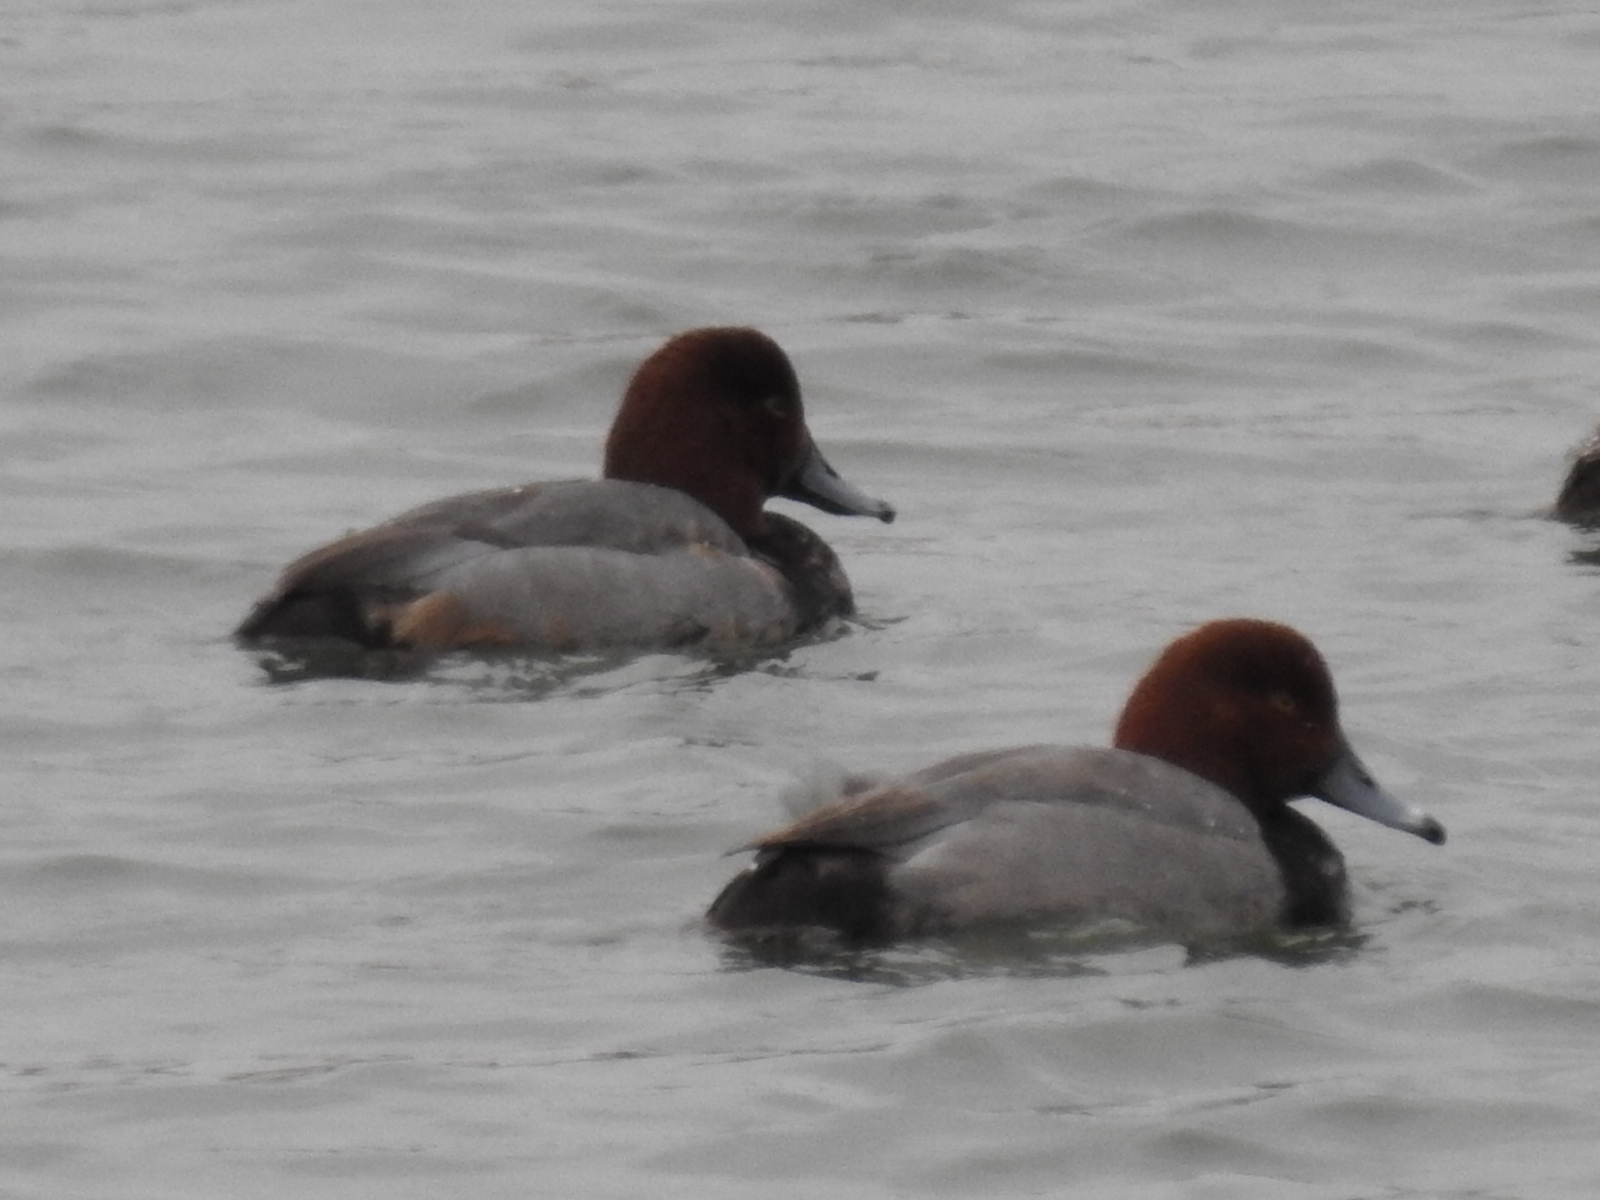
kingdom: Animalia
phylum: Chordata
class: Aves
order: Anseriformes
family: Anatidae
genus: Aythya
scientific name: Aythya americana
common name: Redhead
